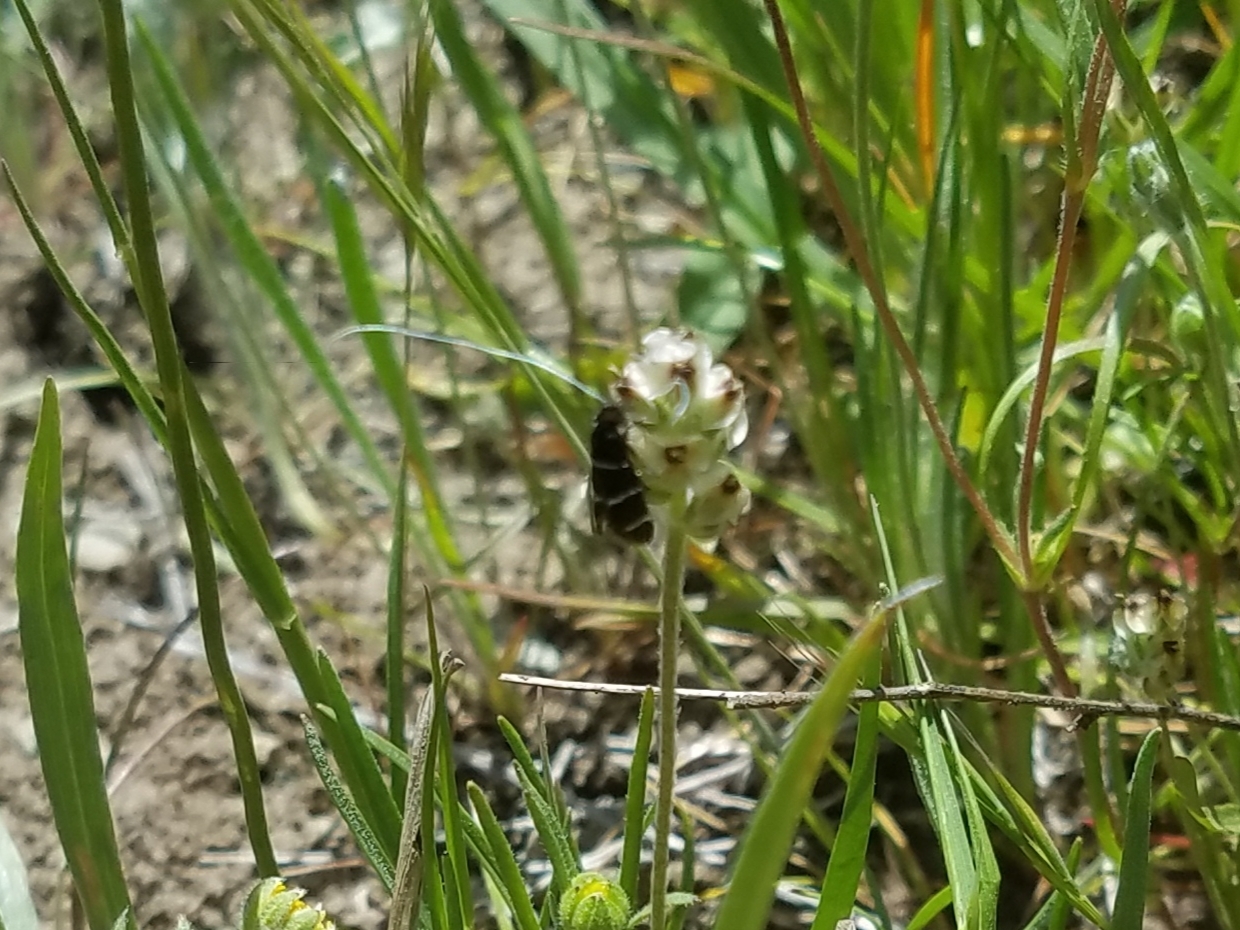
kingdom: Animalia
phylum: Arthropoda
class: Insecta
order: Lepidoptera
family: Adelidae
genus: Adela
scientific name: Adela trigrapha
